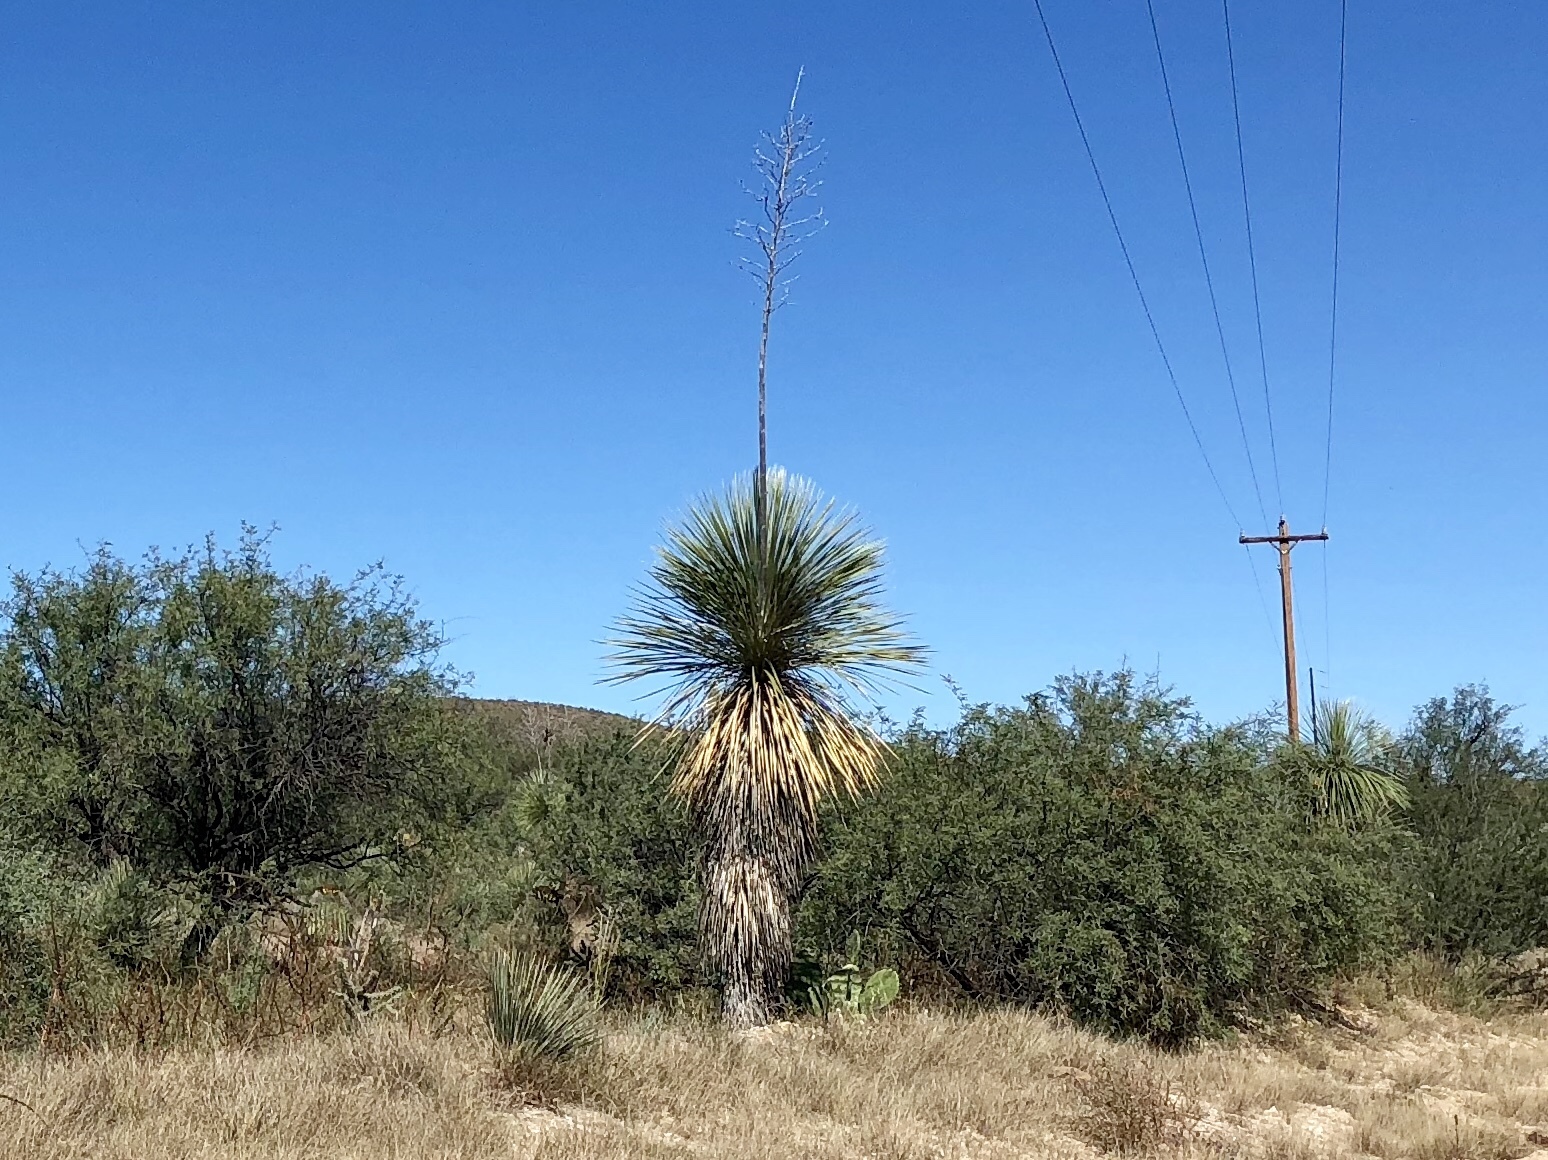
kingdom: Plantae
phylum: Tracheophyta
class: Liliopsida
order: Asparagales
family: Asparagaceae
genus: Yucca
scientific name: Yucca elata
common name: Palmella
